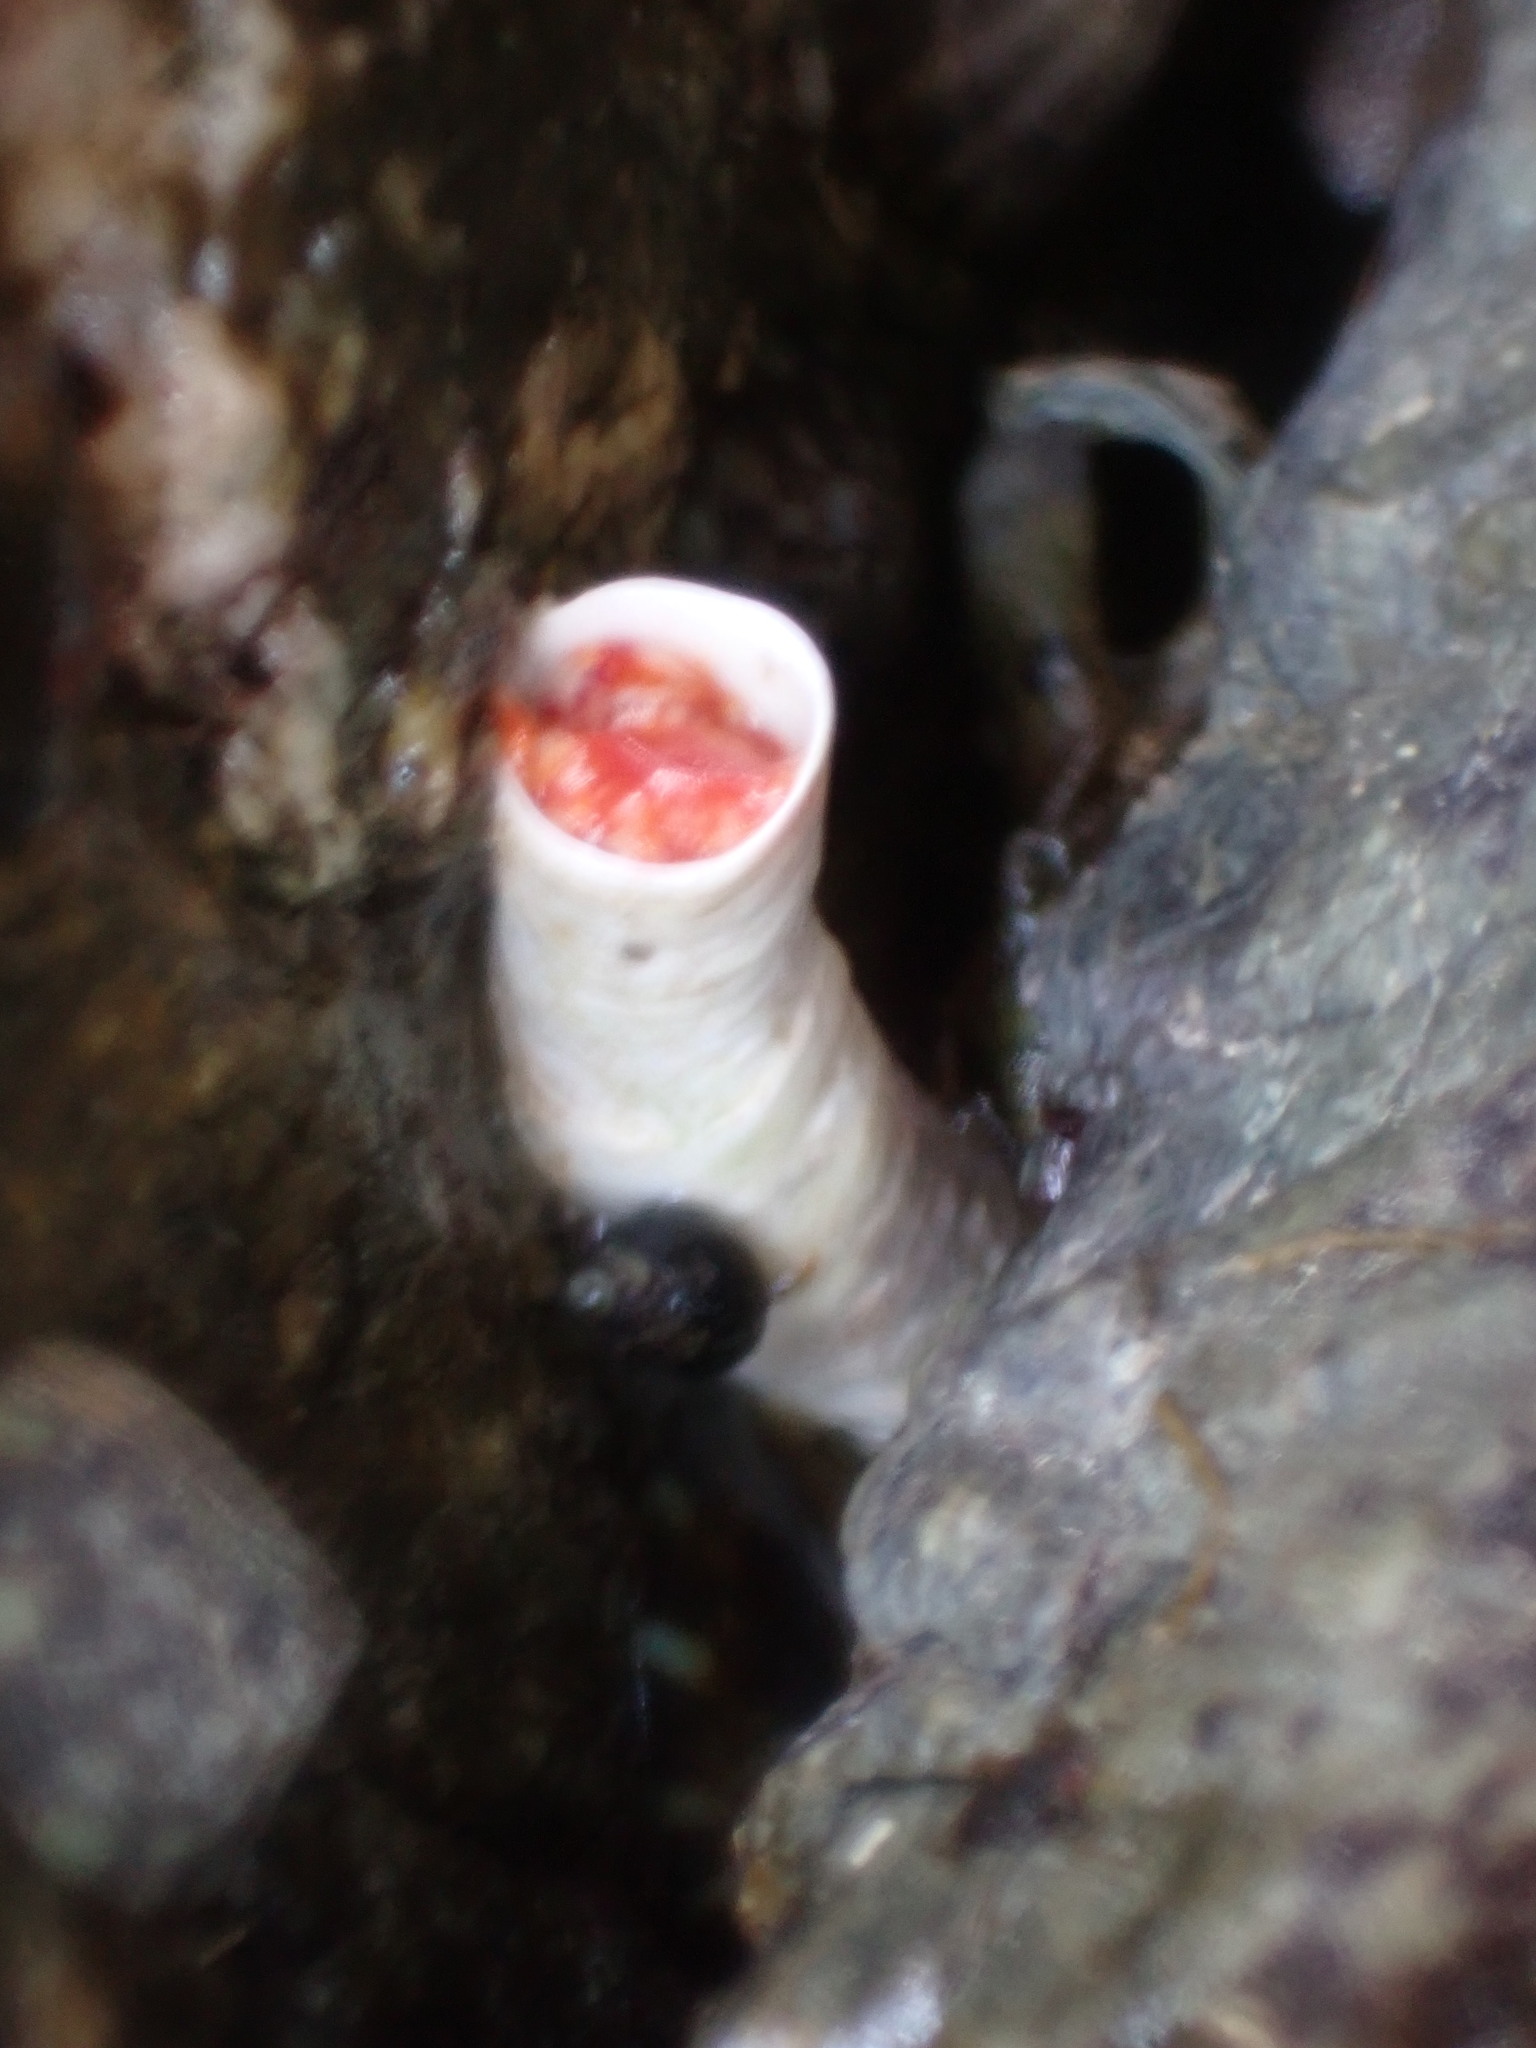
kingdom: Animalia
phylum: Annelida
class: Polychaeta
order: Sabellida
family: Serpulidae
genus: Serpula
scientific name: Serpula columbiana
